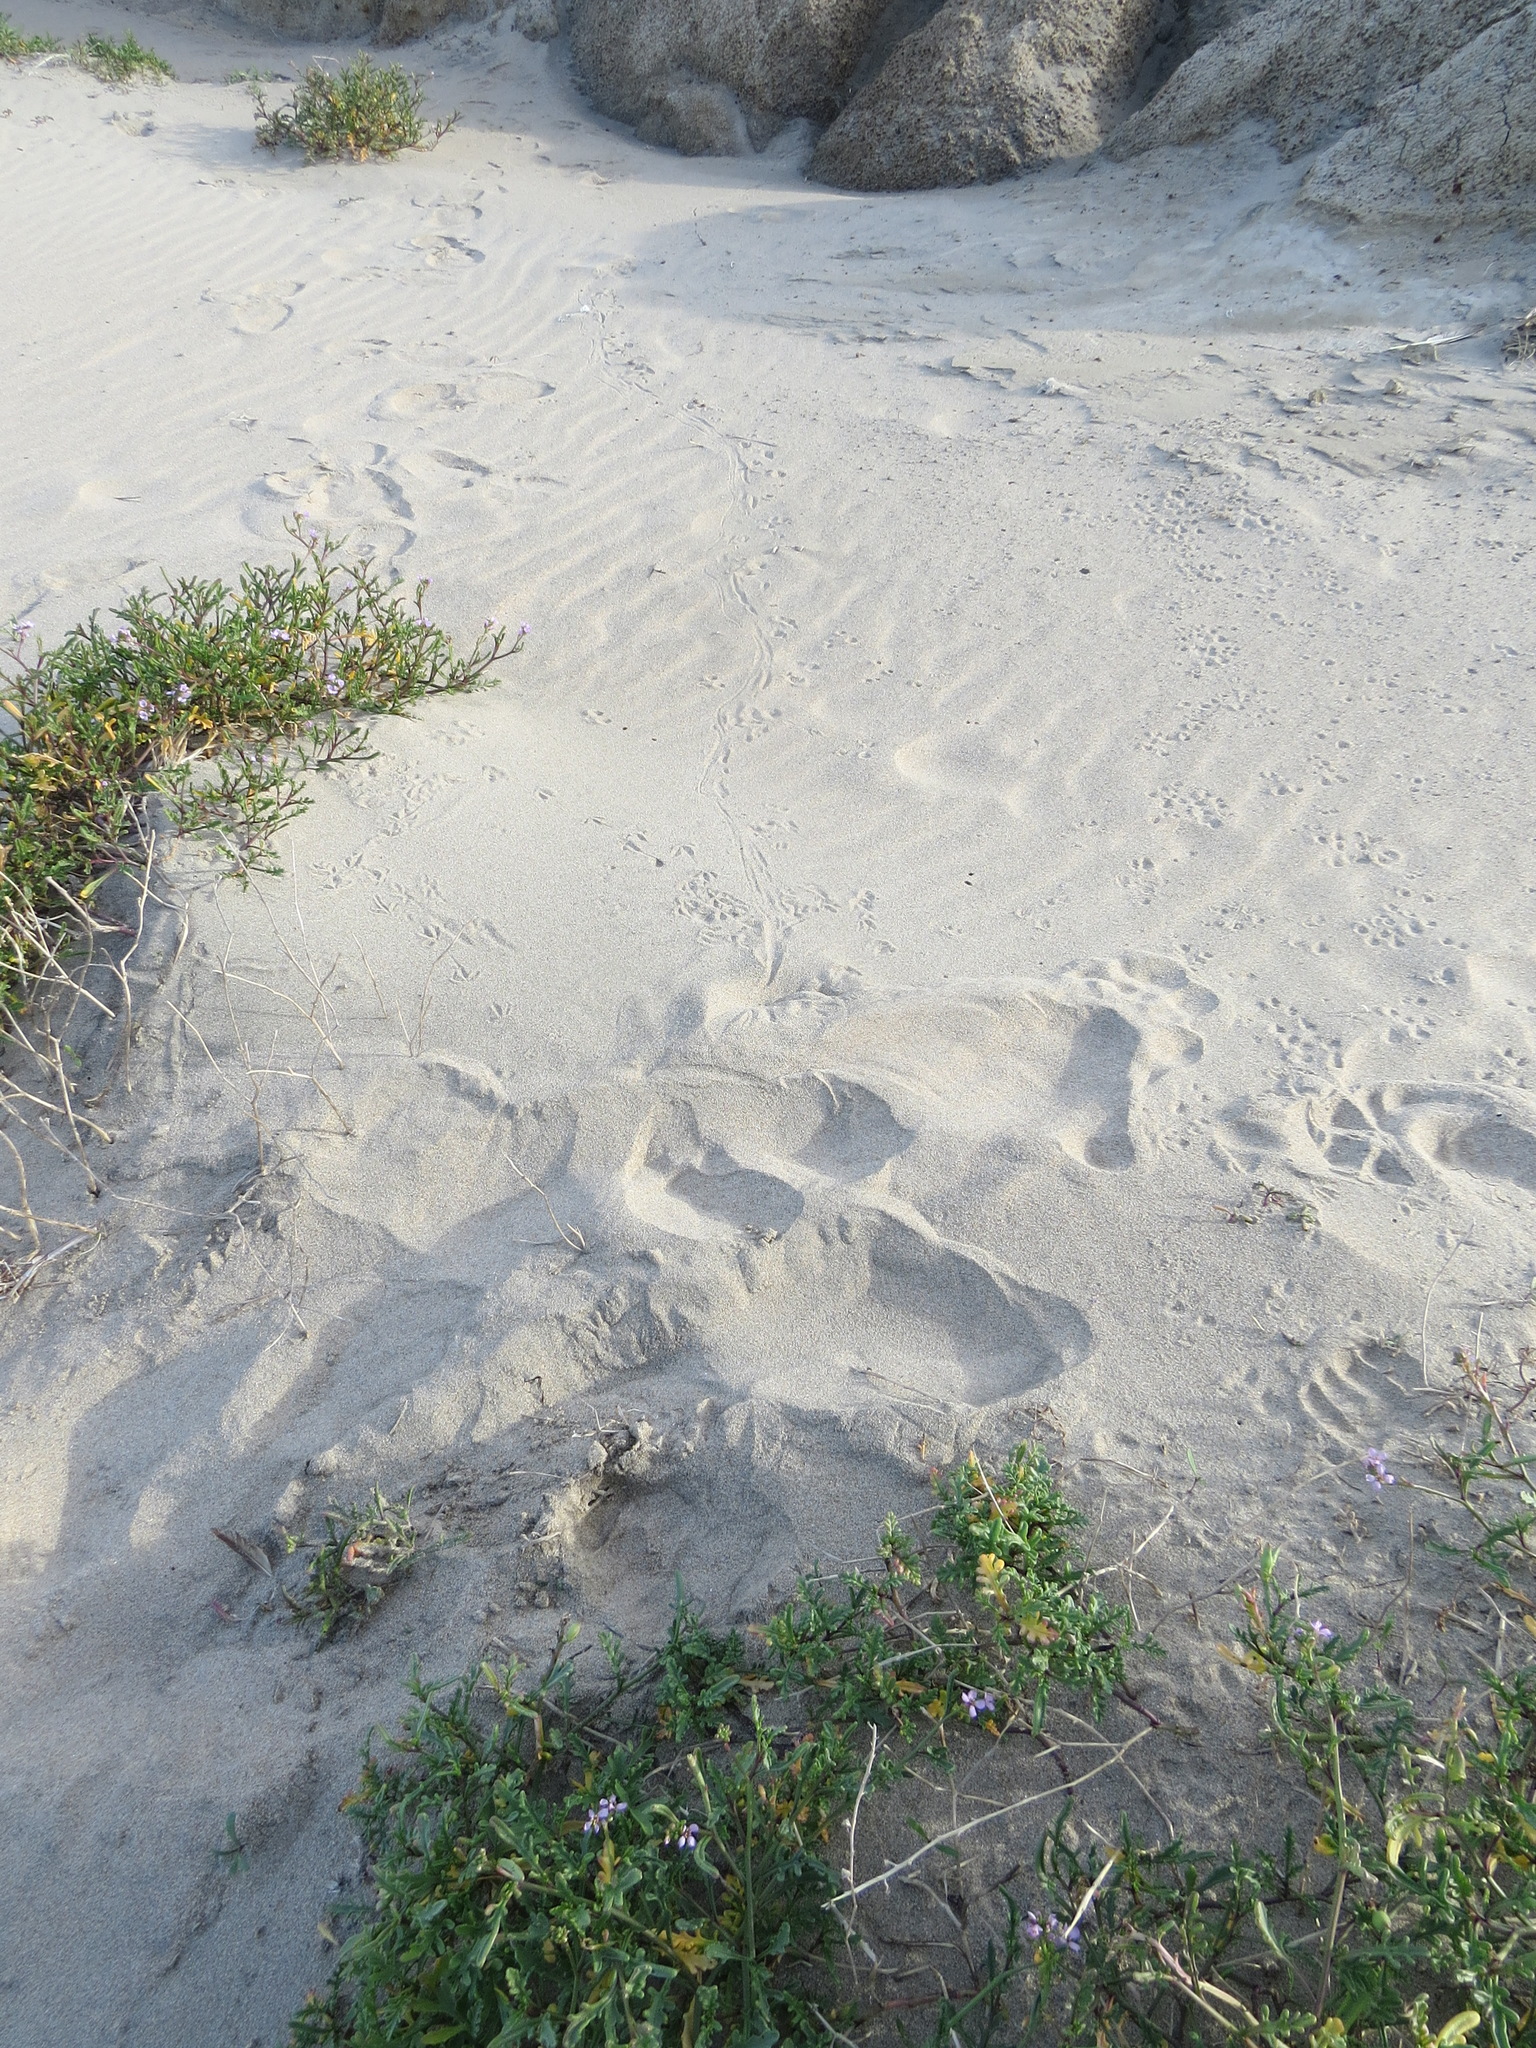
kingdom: Animalia
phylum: Chordata
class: Mammalia
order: Rodentia
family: Cricetidae
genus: Peromyscus
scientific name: Peromyscus maniculatus
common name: Deer mouse
